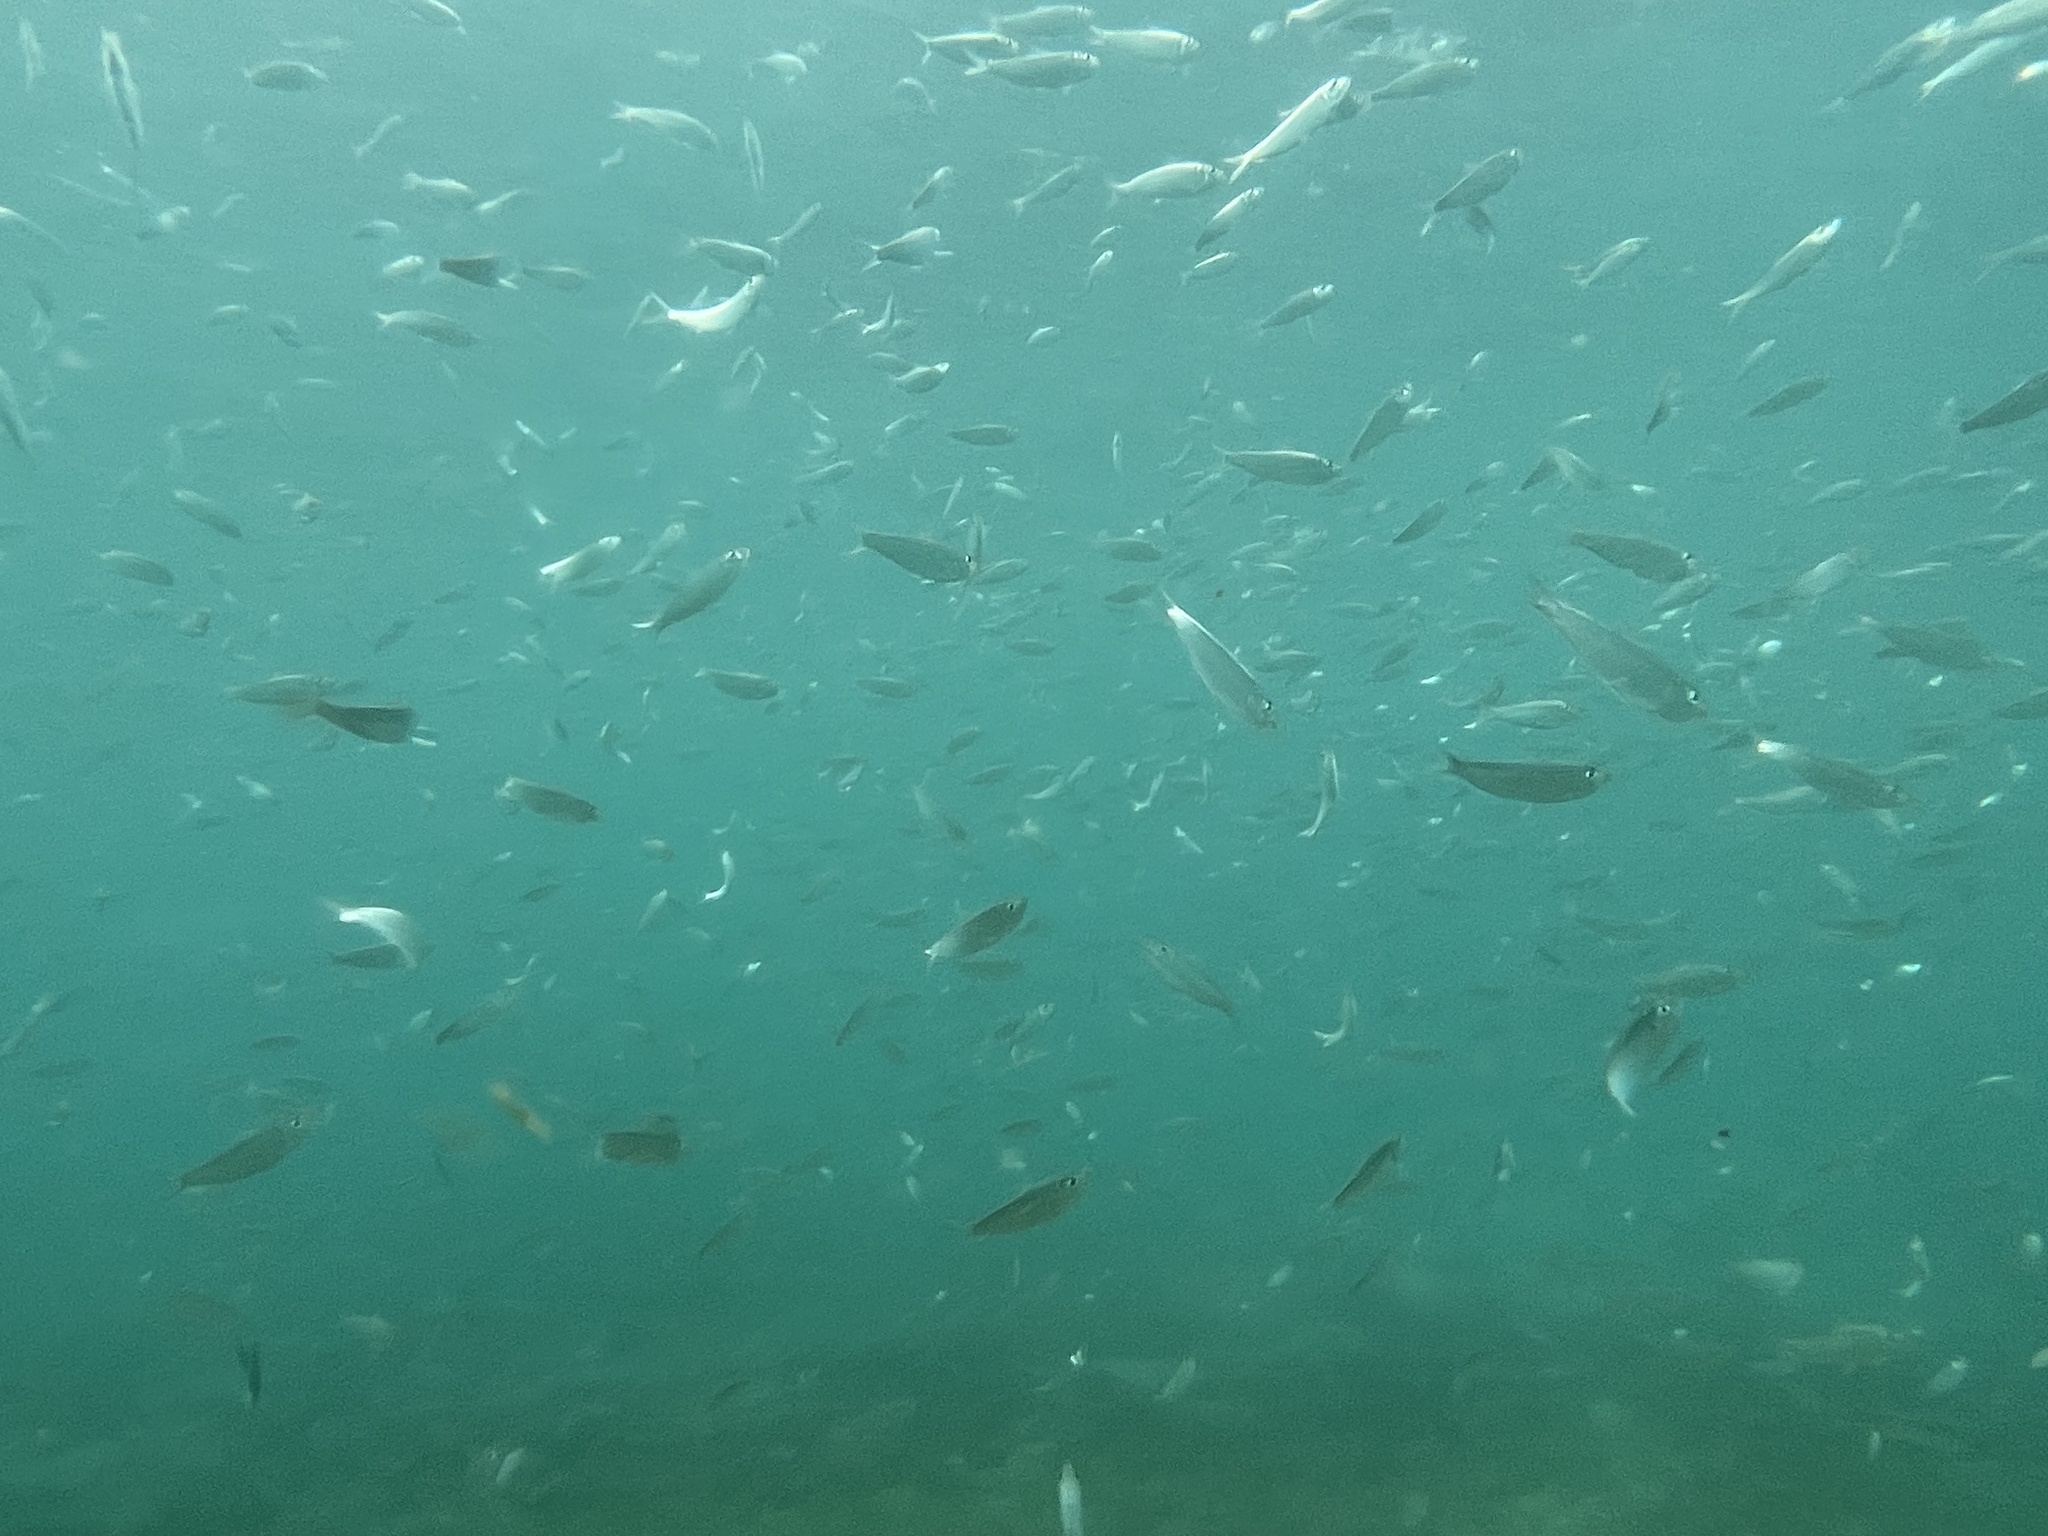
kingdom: Animalia
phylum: Chordata
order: Clupeiformes
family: Clupeidae
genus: Harengula
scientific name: Harengula jaguana
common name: Scaled sardine
